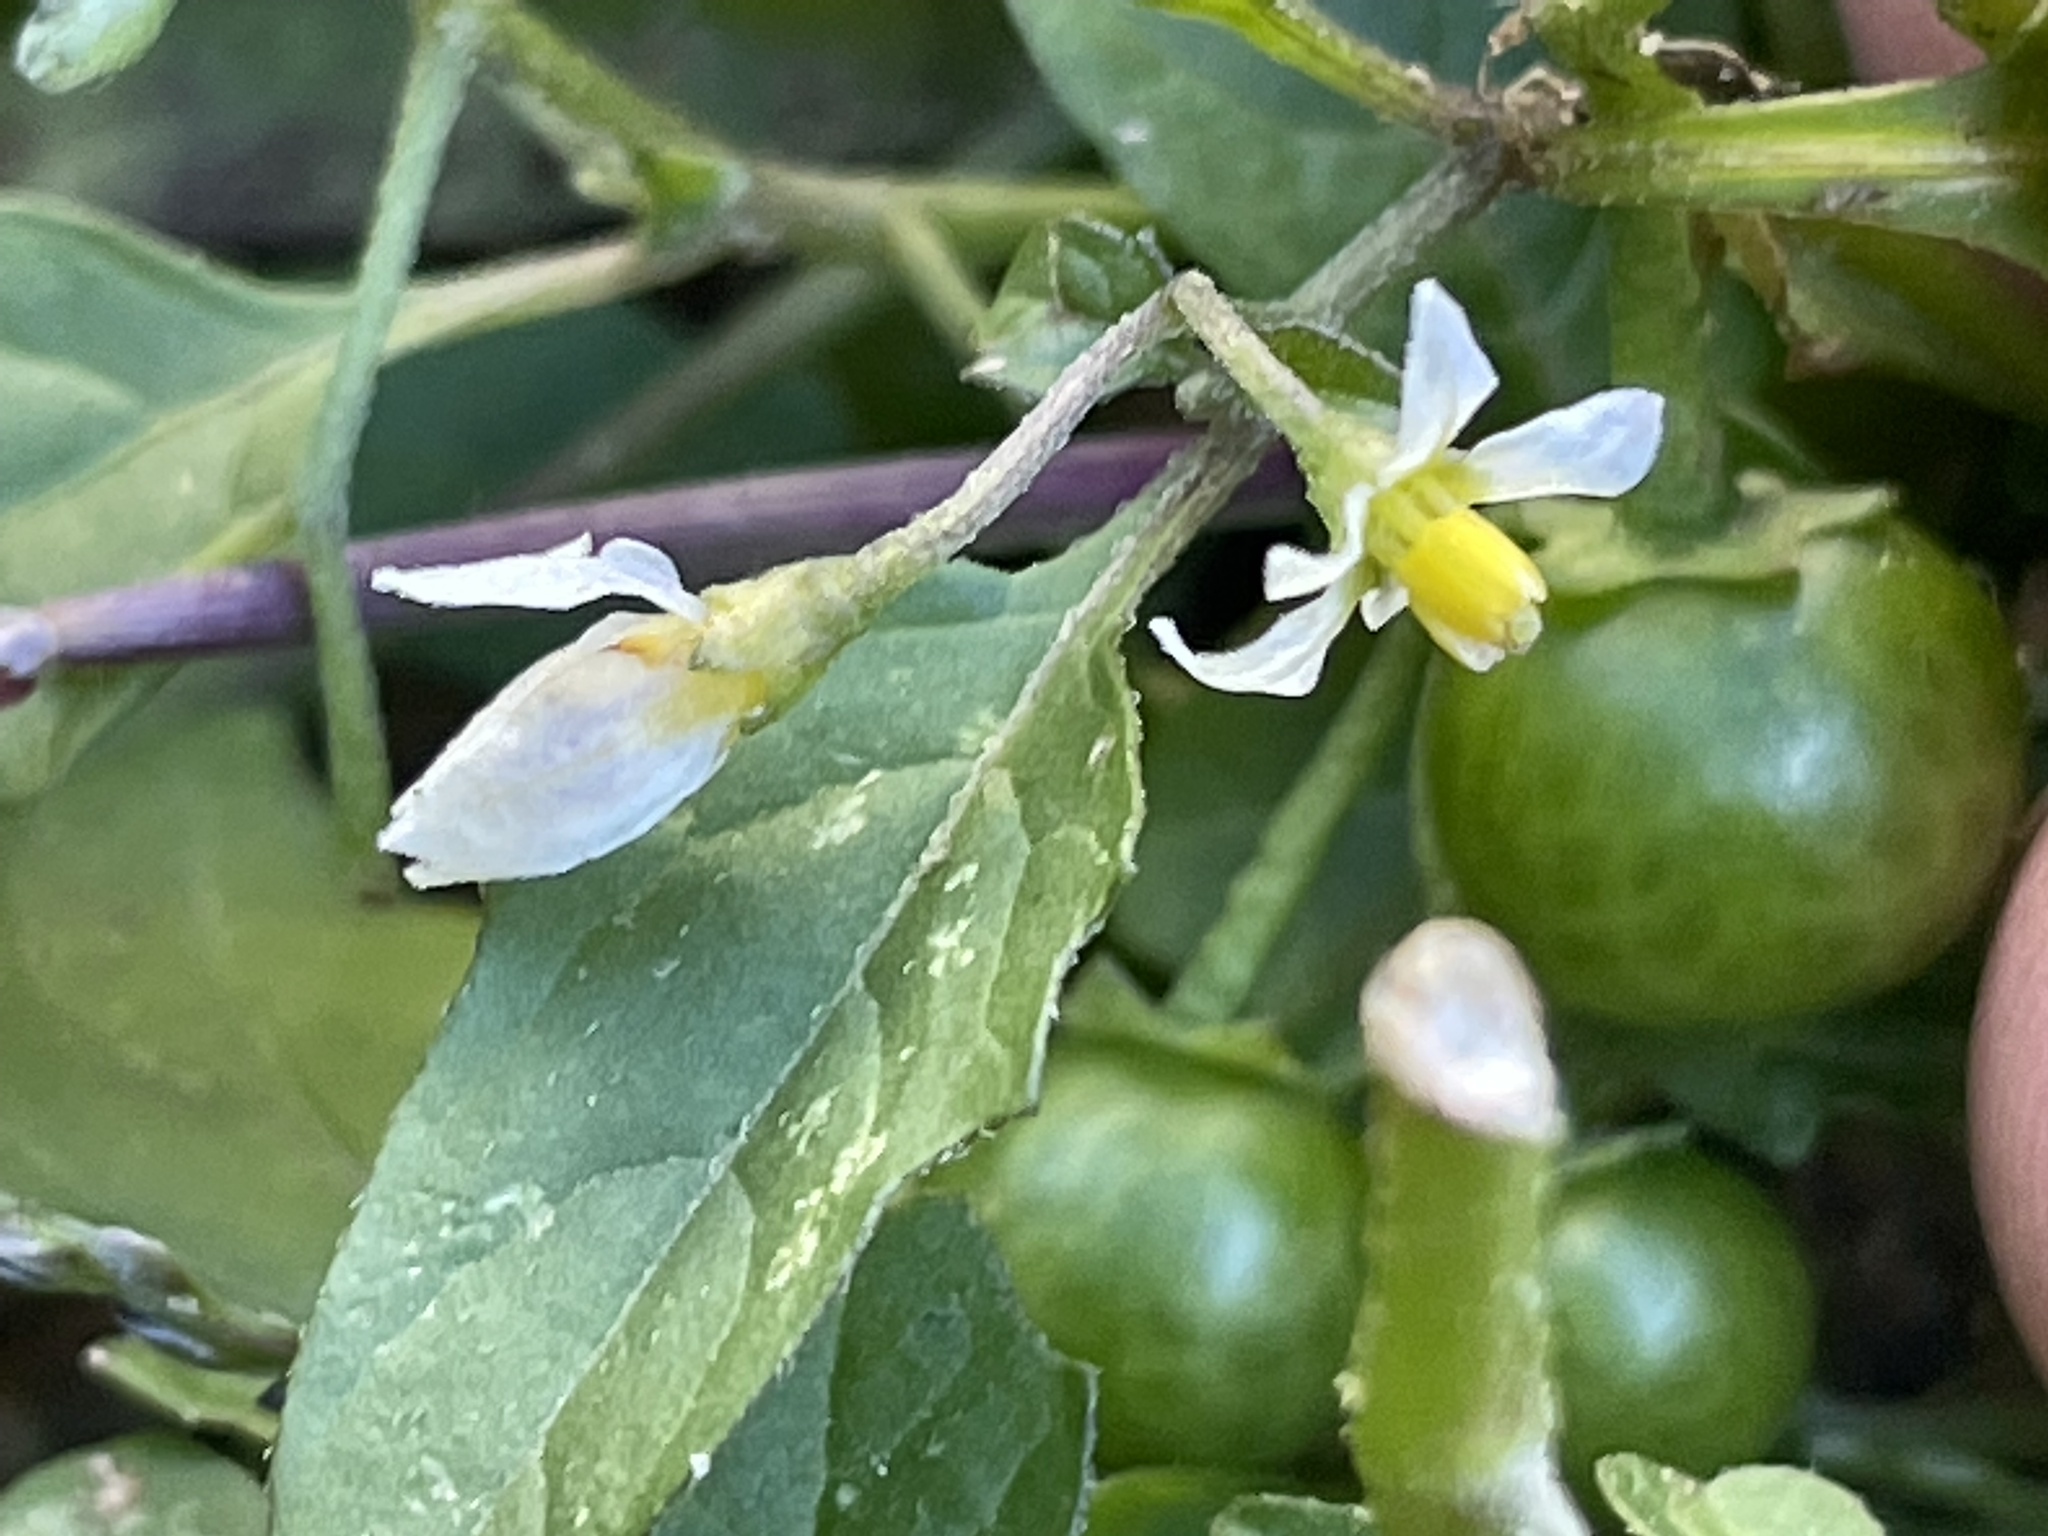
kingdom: Plantae
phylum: Tracheophyta
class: Magnoliopsida
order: Solanales
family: Solanaceae
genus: Solanum
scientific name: Solanum emulans
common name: Eastern black nightshade
